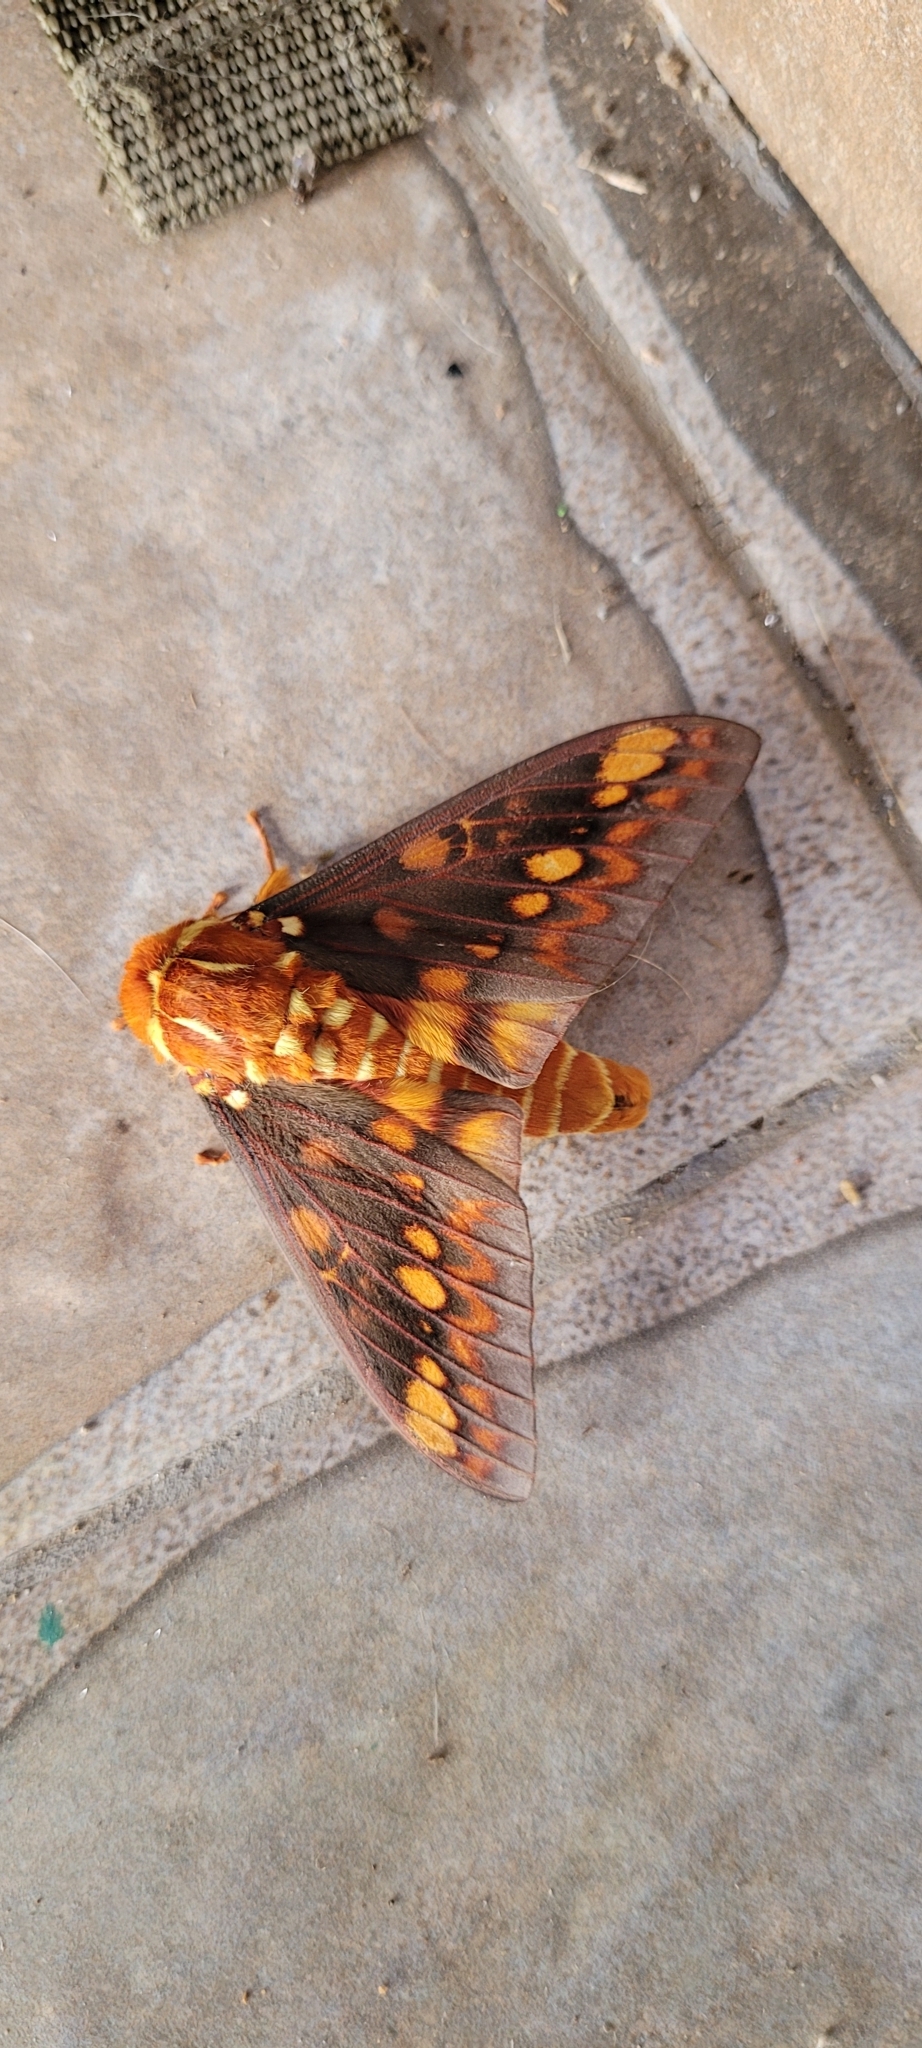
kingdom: Animalia
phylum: Arthropoda
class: Insecta
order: Lepidoptera
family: Saturniidae
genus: Citheronia
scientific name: Citheronia aroa
